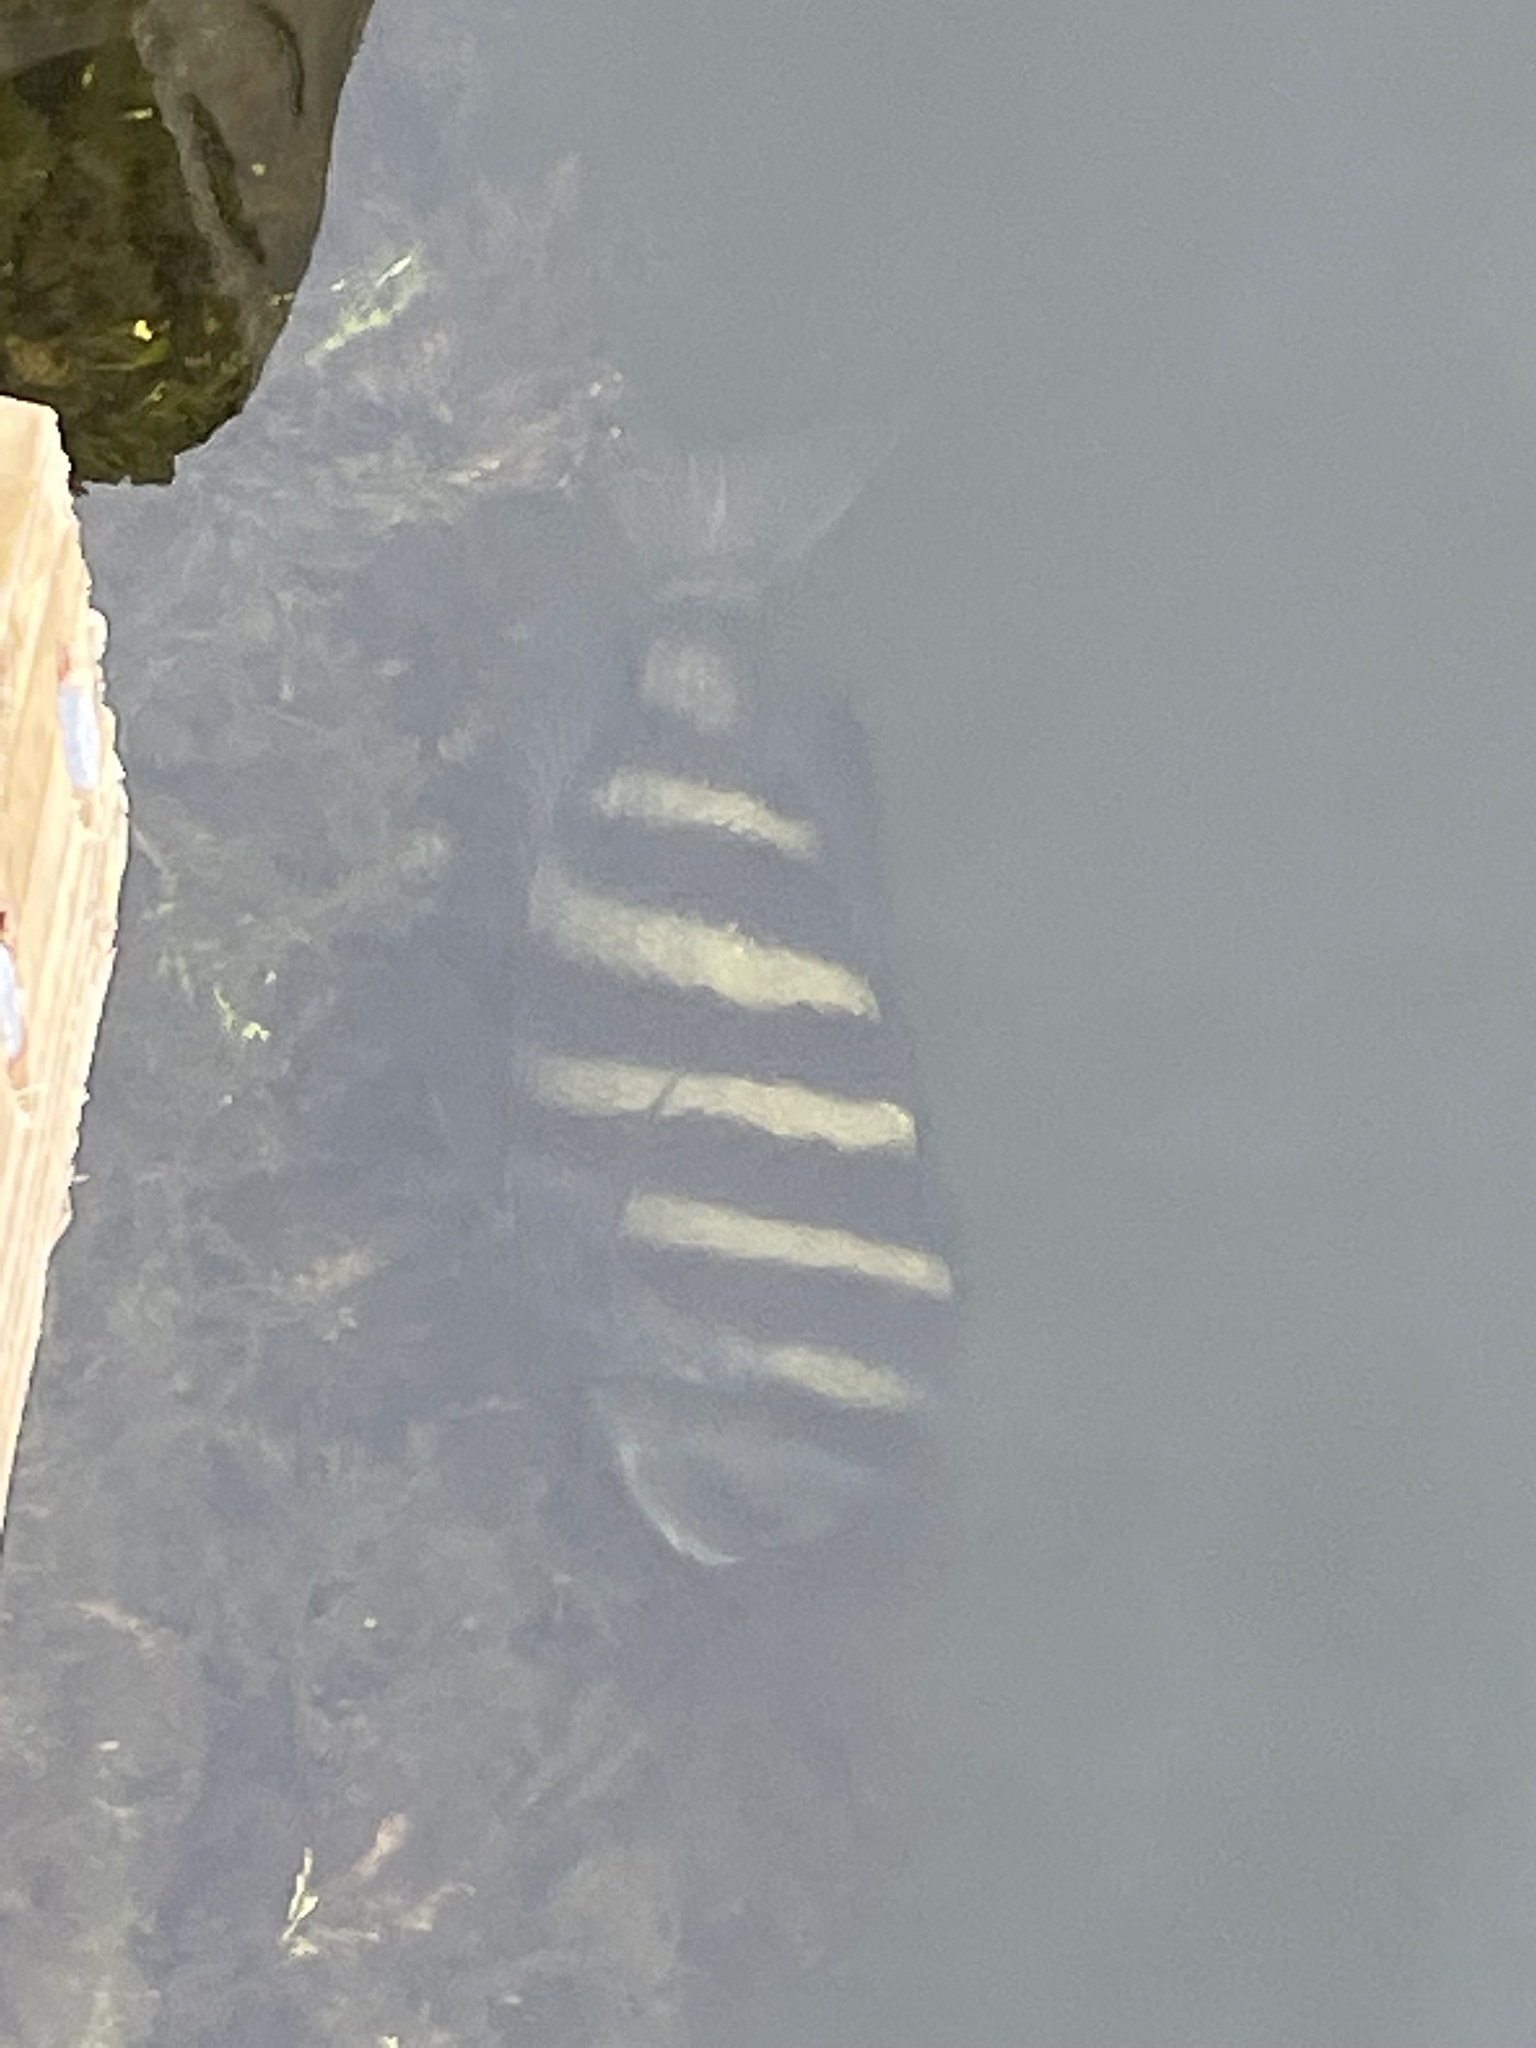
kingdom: Animalia
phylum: Chordata
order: Perciformes
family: Sparidae
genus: Archosargus
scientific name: Archosargus probatocephalus
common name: Sheepshead
